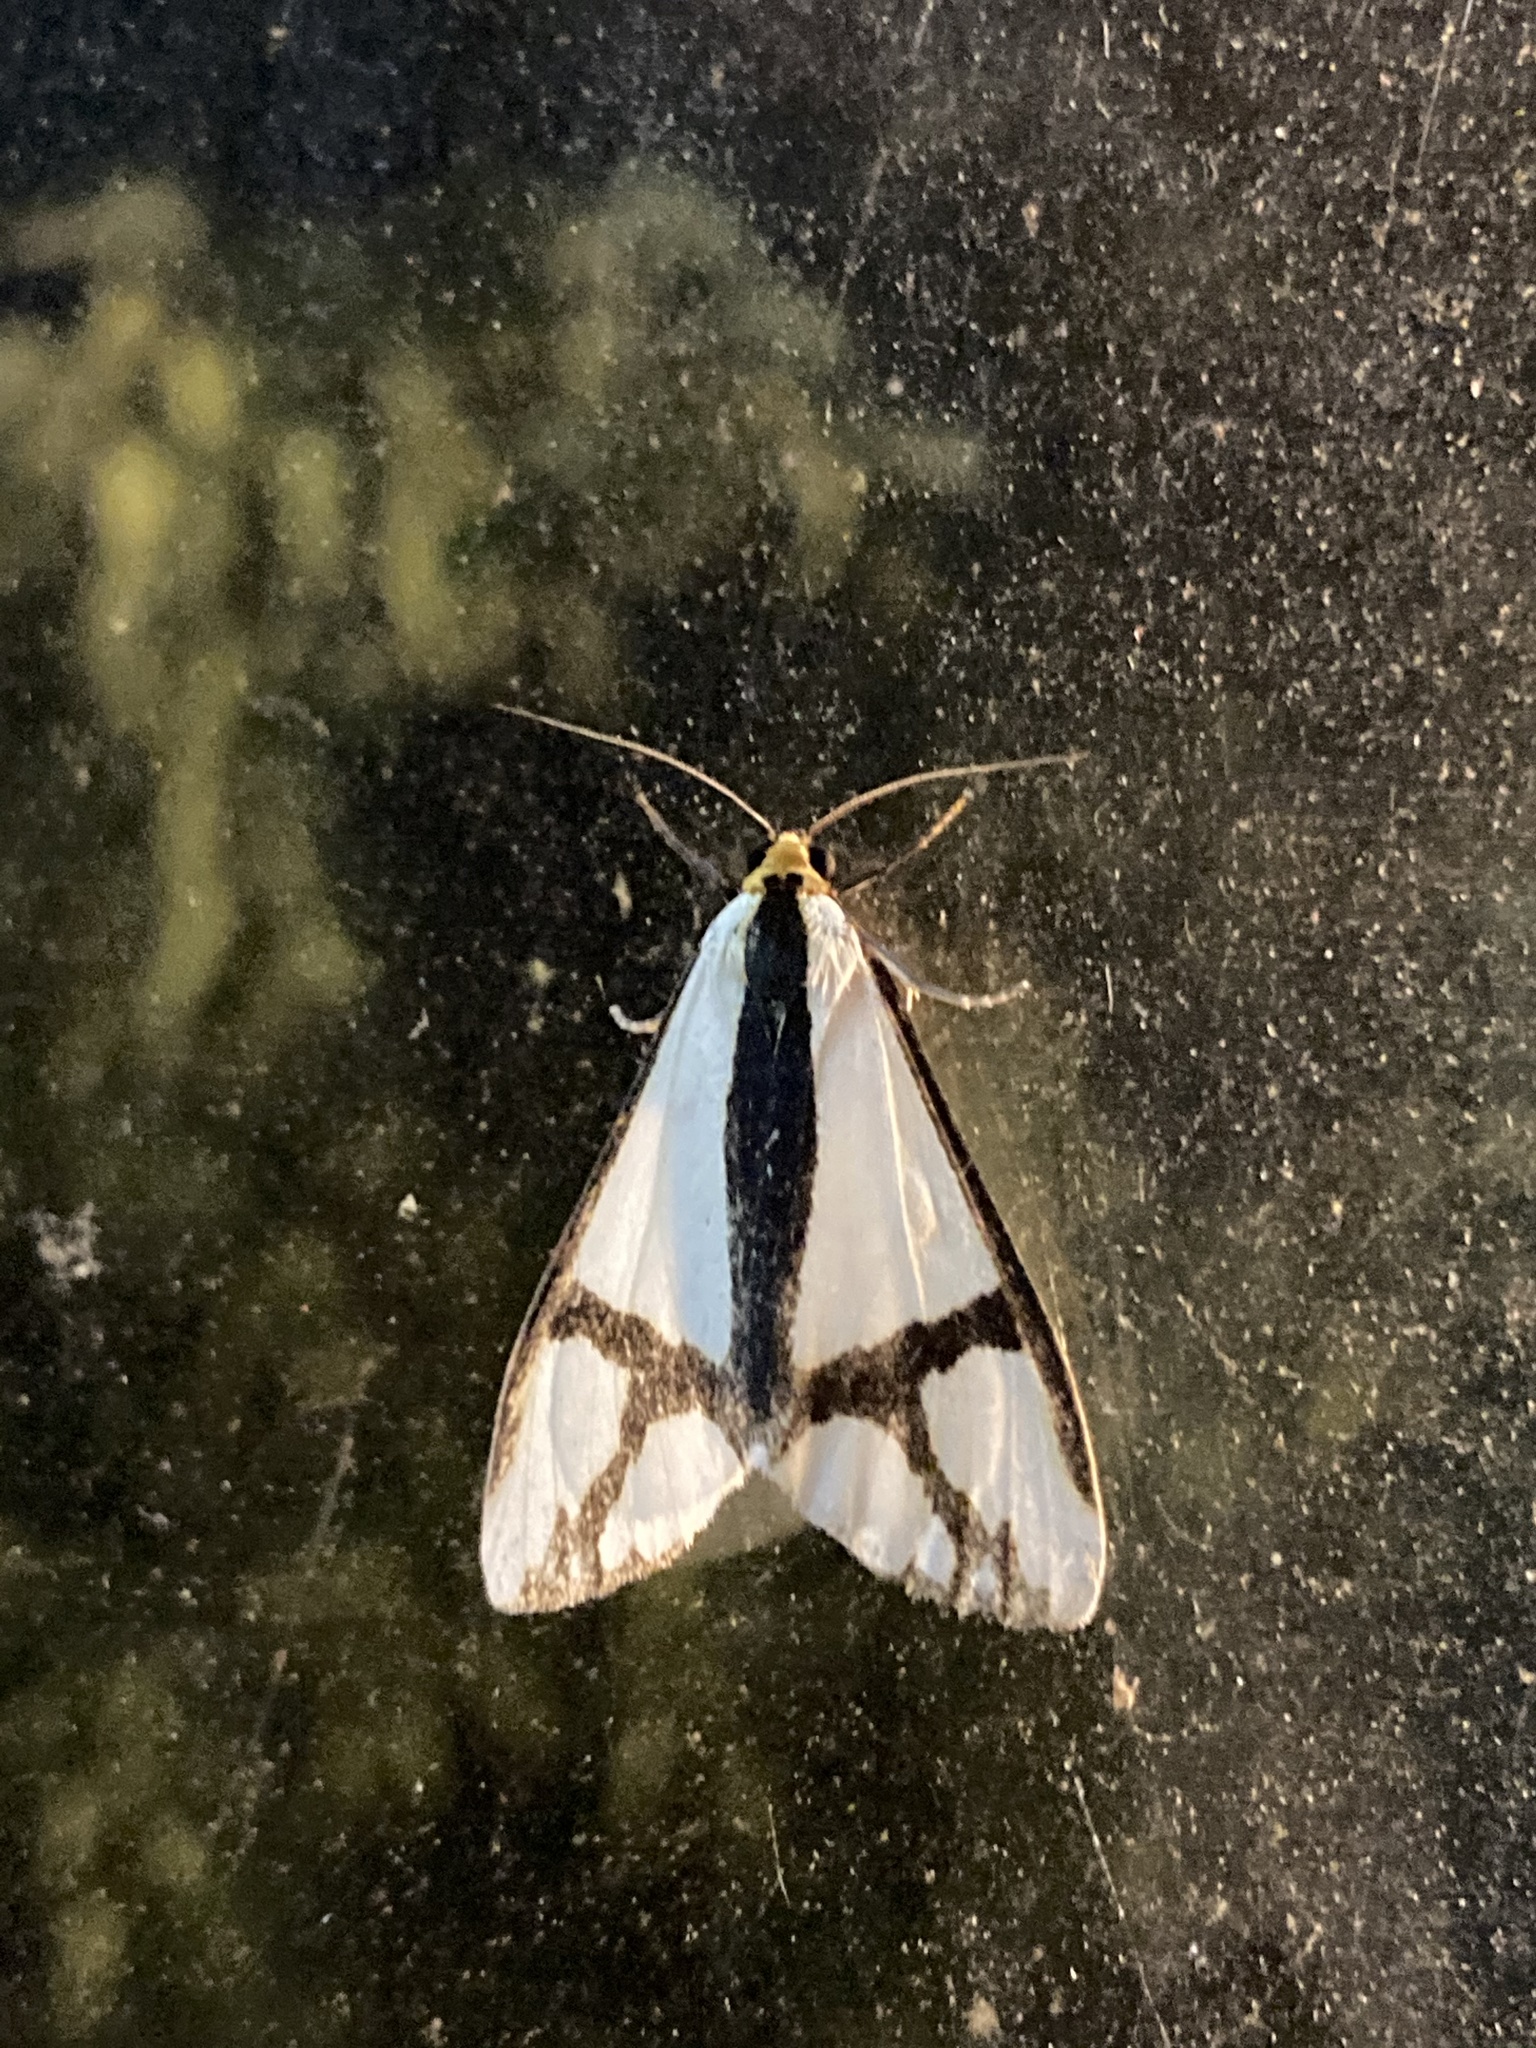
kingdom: Animalia
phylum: Arthropoda
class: Insecta
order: Lepidoptera
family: Erebidae
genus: Haploa
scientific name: Haploa contigua
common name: Neighbor moth
